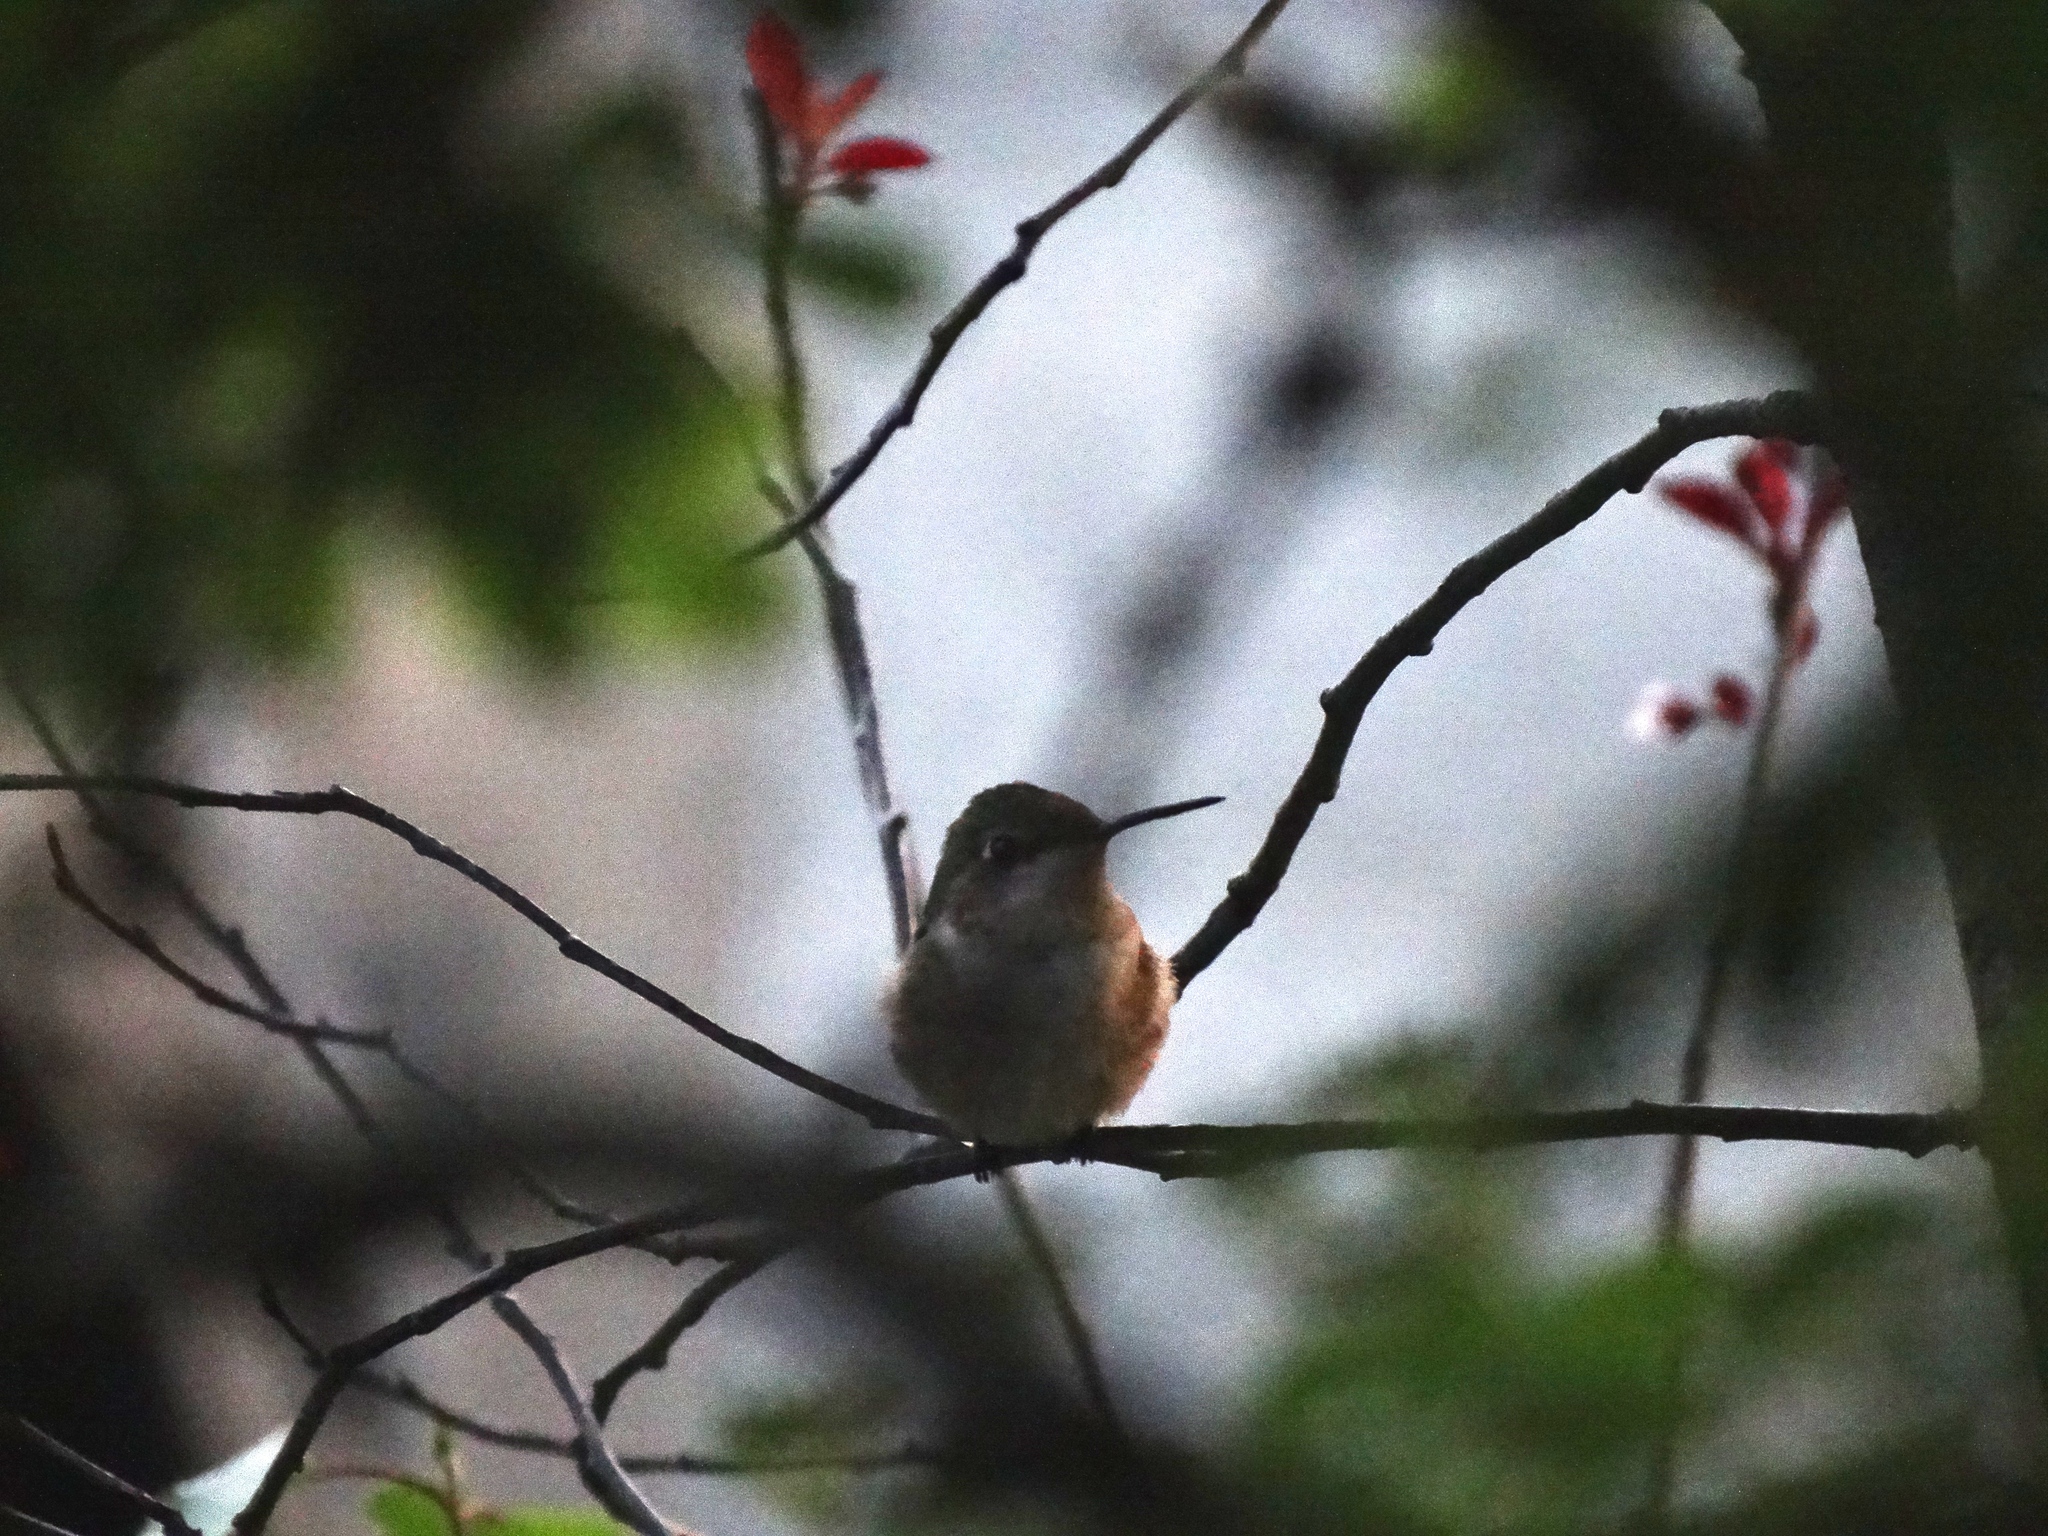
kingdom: Animalia
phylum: Chordata
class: Aves
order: Apodiformes
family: Trochilidae
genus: Archilochus
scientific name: Archilochus colubris
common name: Ruby-throated hummingbird
